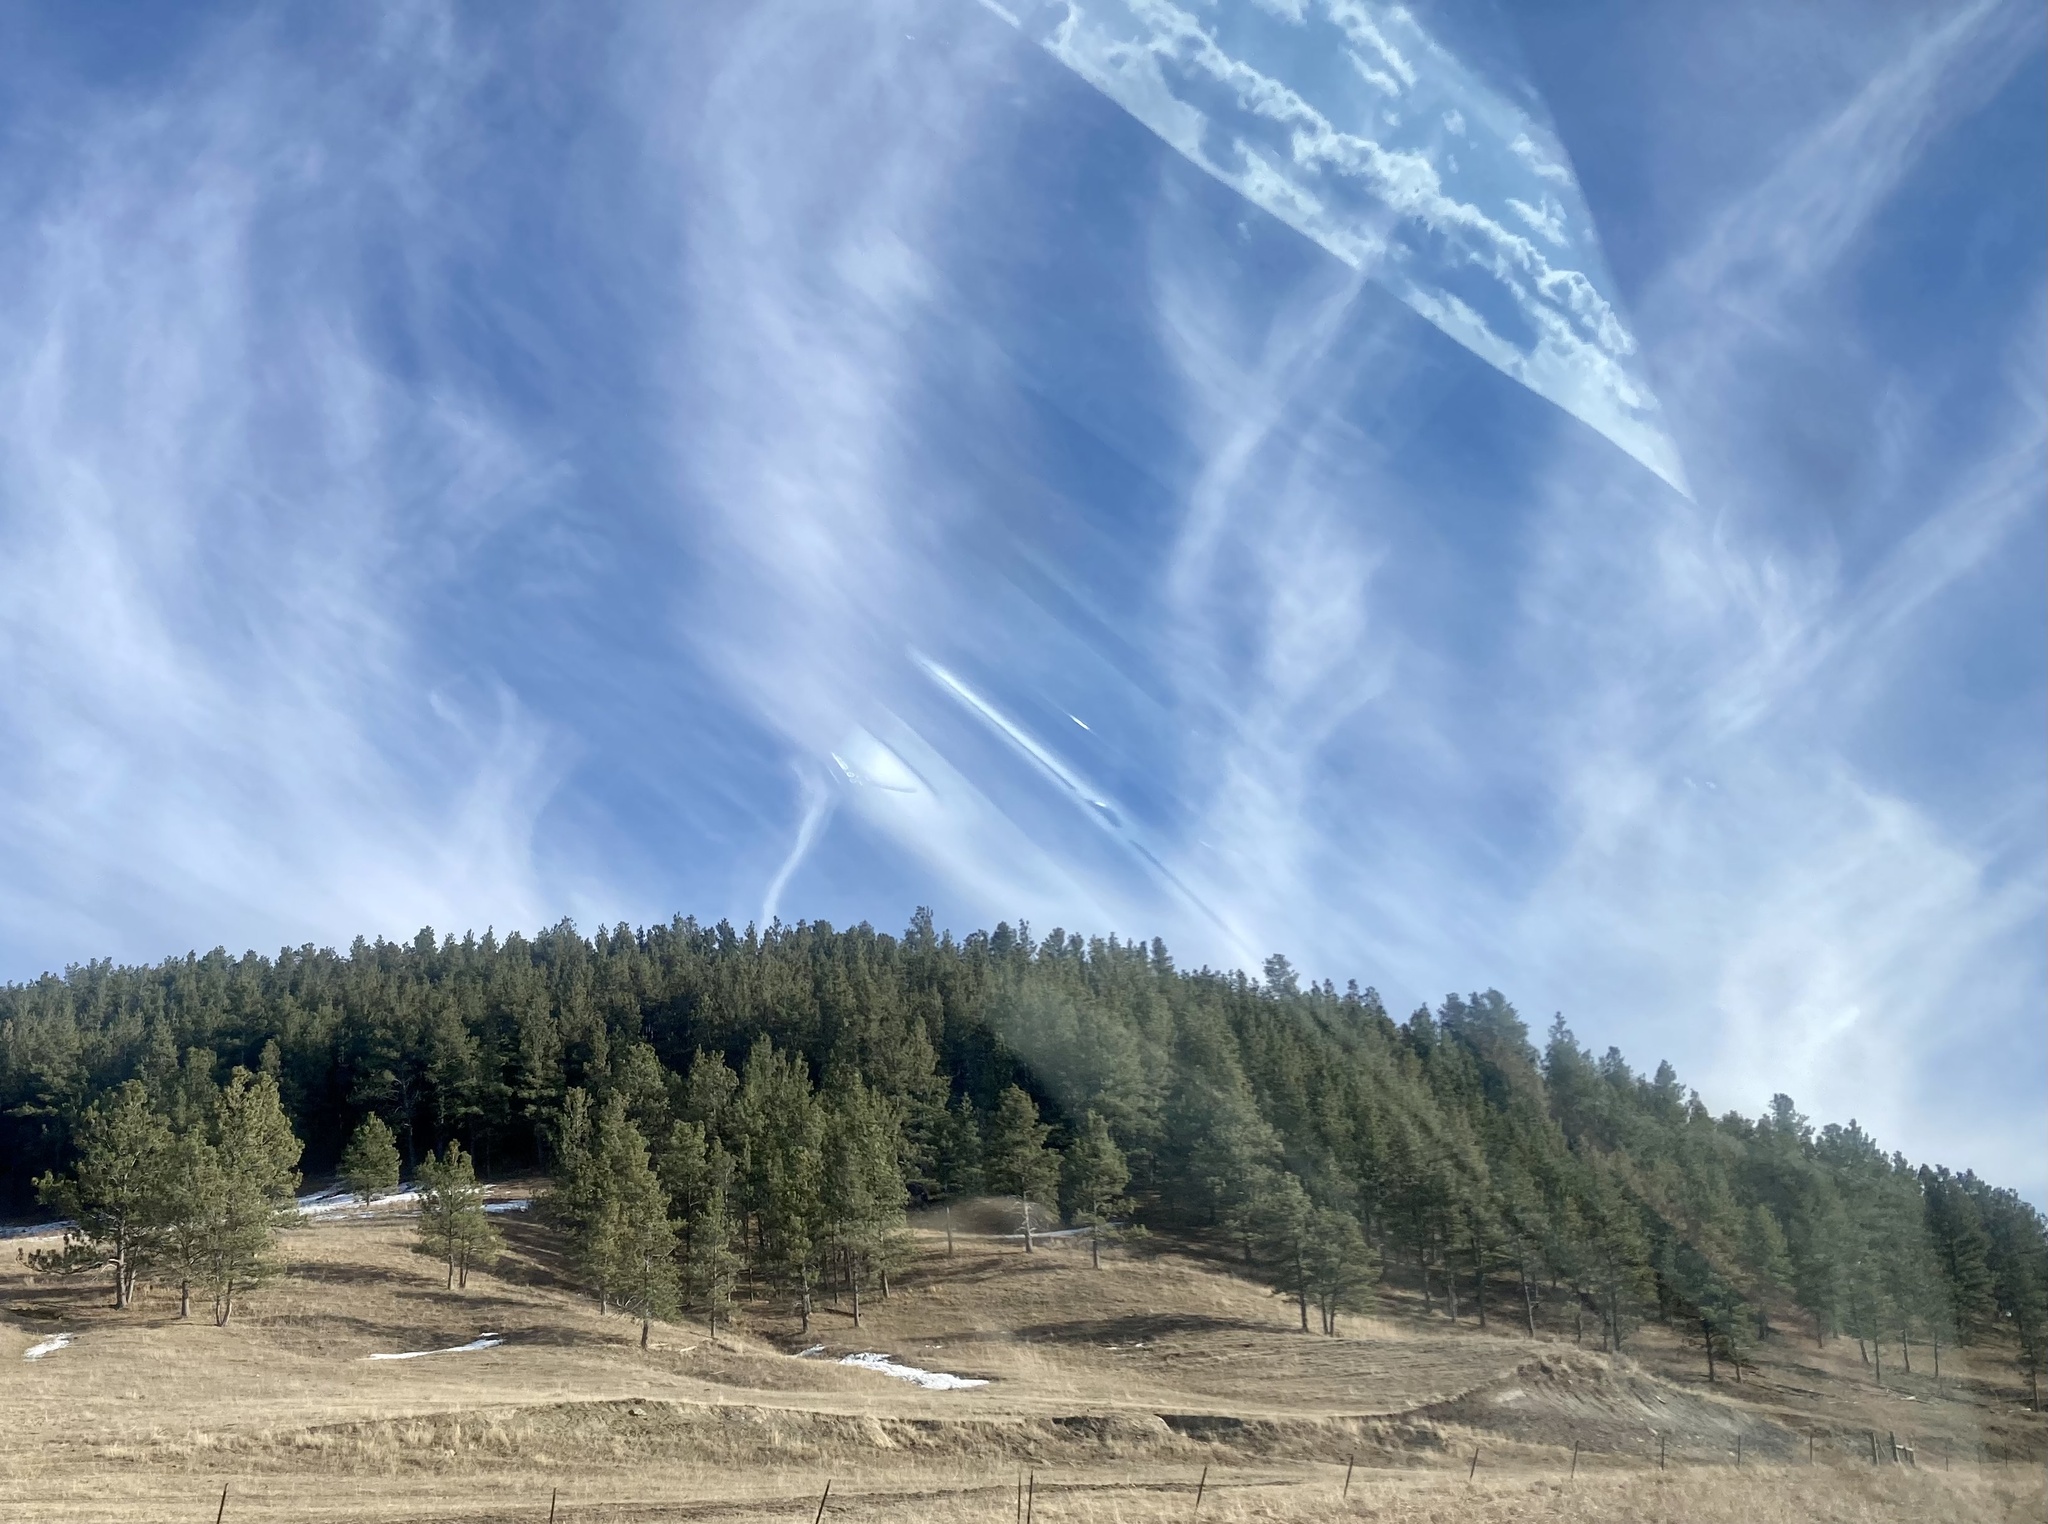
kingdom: Plantae
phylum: Tracheophyta
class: Pinopsida
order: Pinales
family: Pinaceae
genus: Pinus
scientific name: Pinus ponderosa
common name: Western yellow-pine
